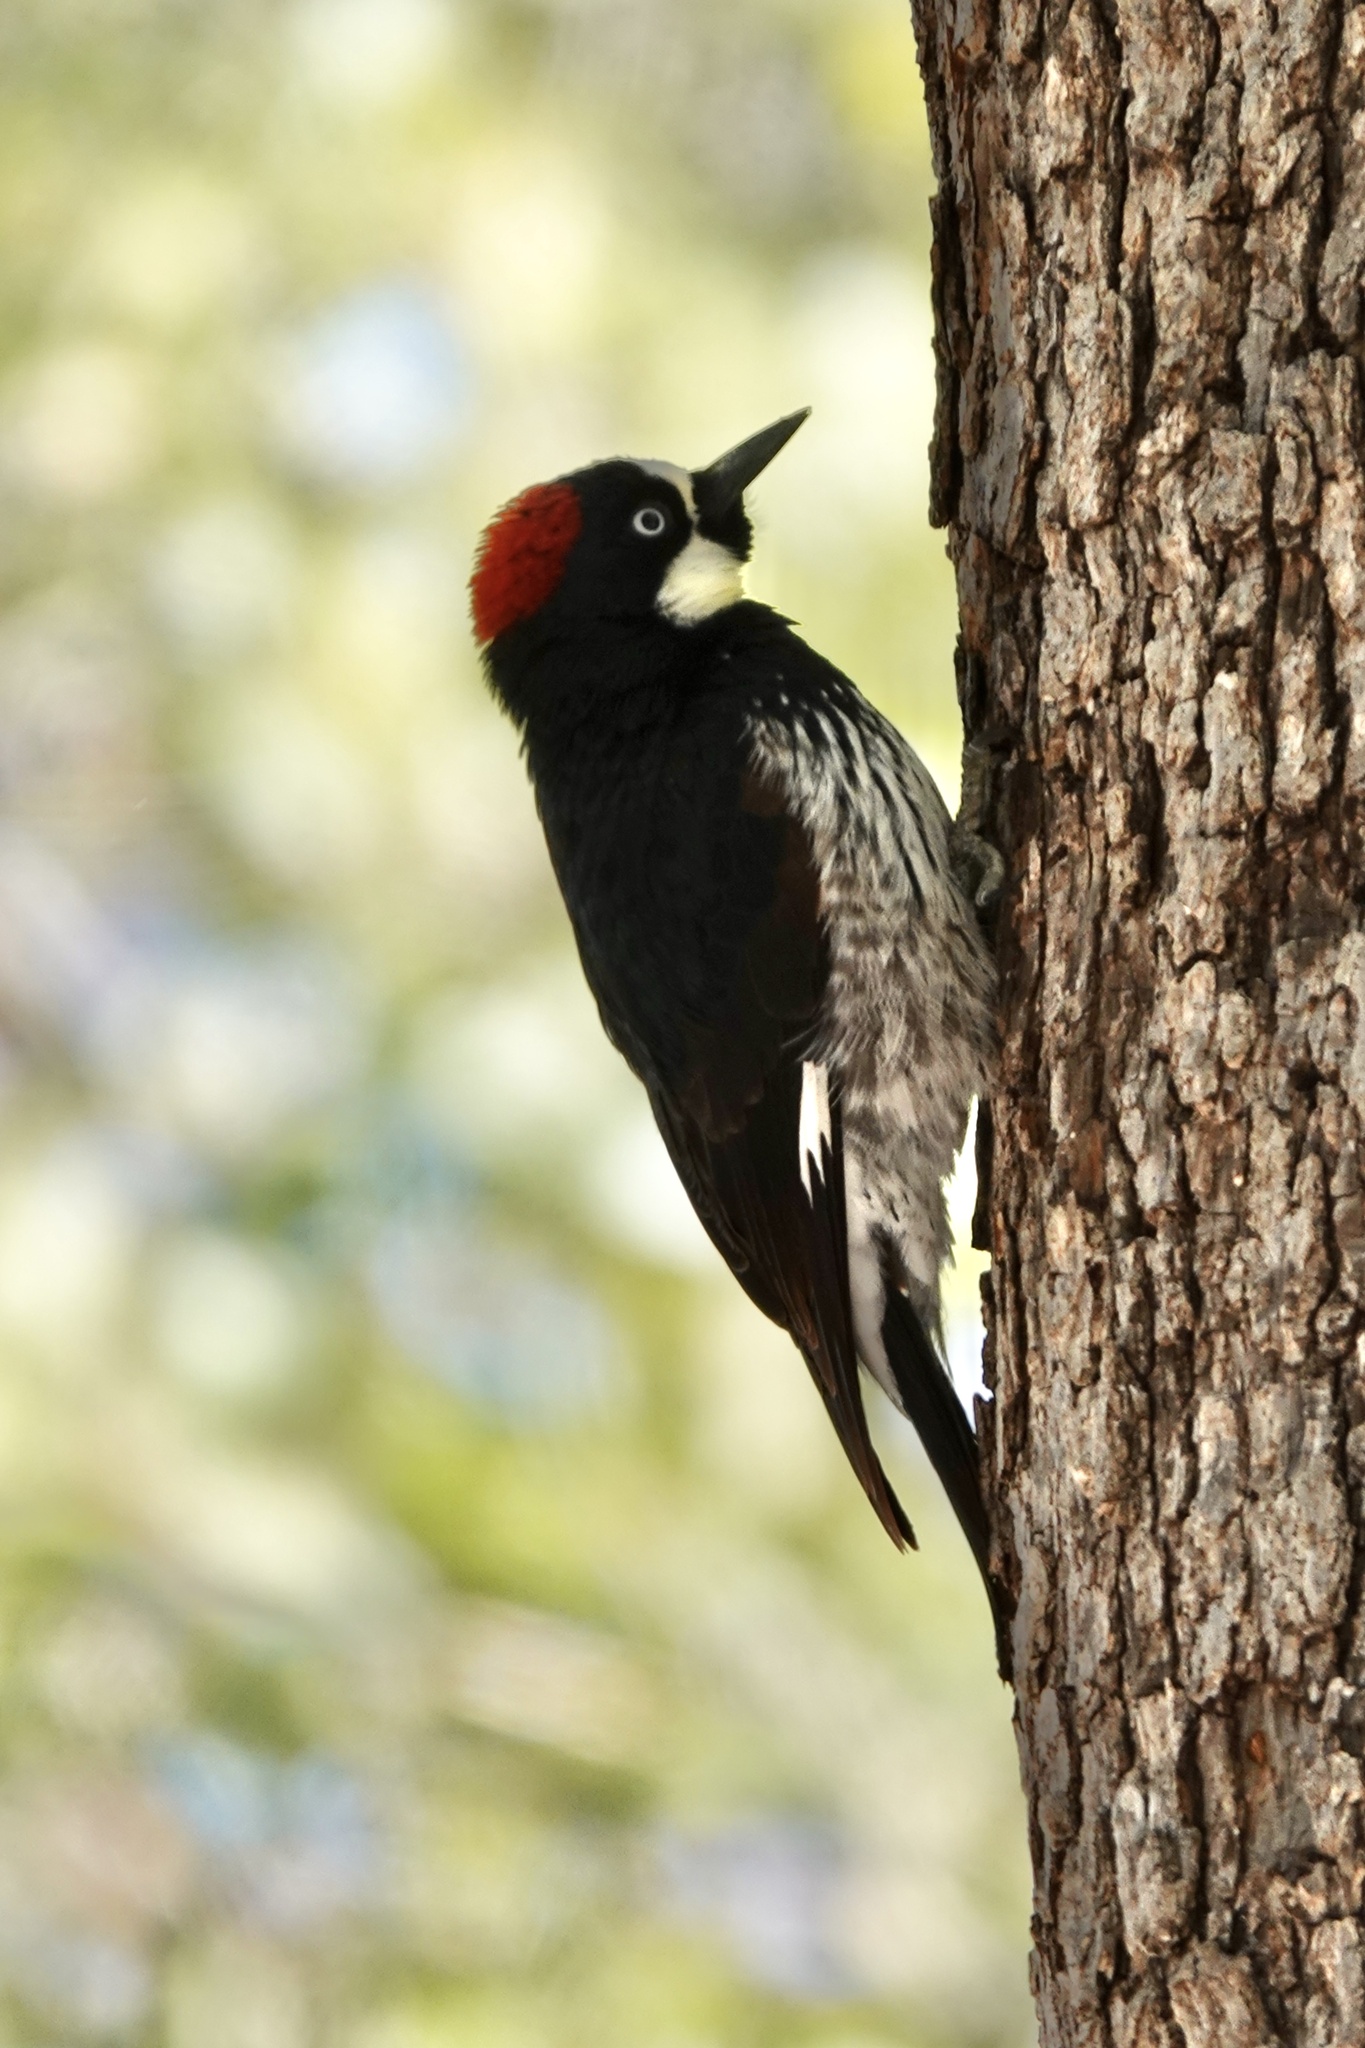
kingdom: Animalia
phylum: Chordata
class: Aves
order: Piciformes
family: Picidae
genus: Melanerpes
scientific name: Melanerpes formicivorus
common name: Acorn woodpecker
